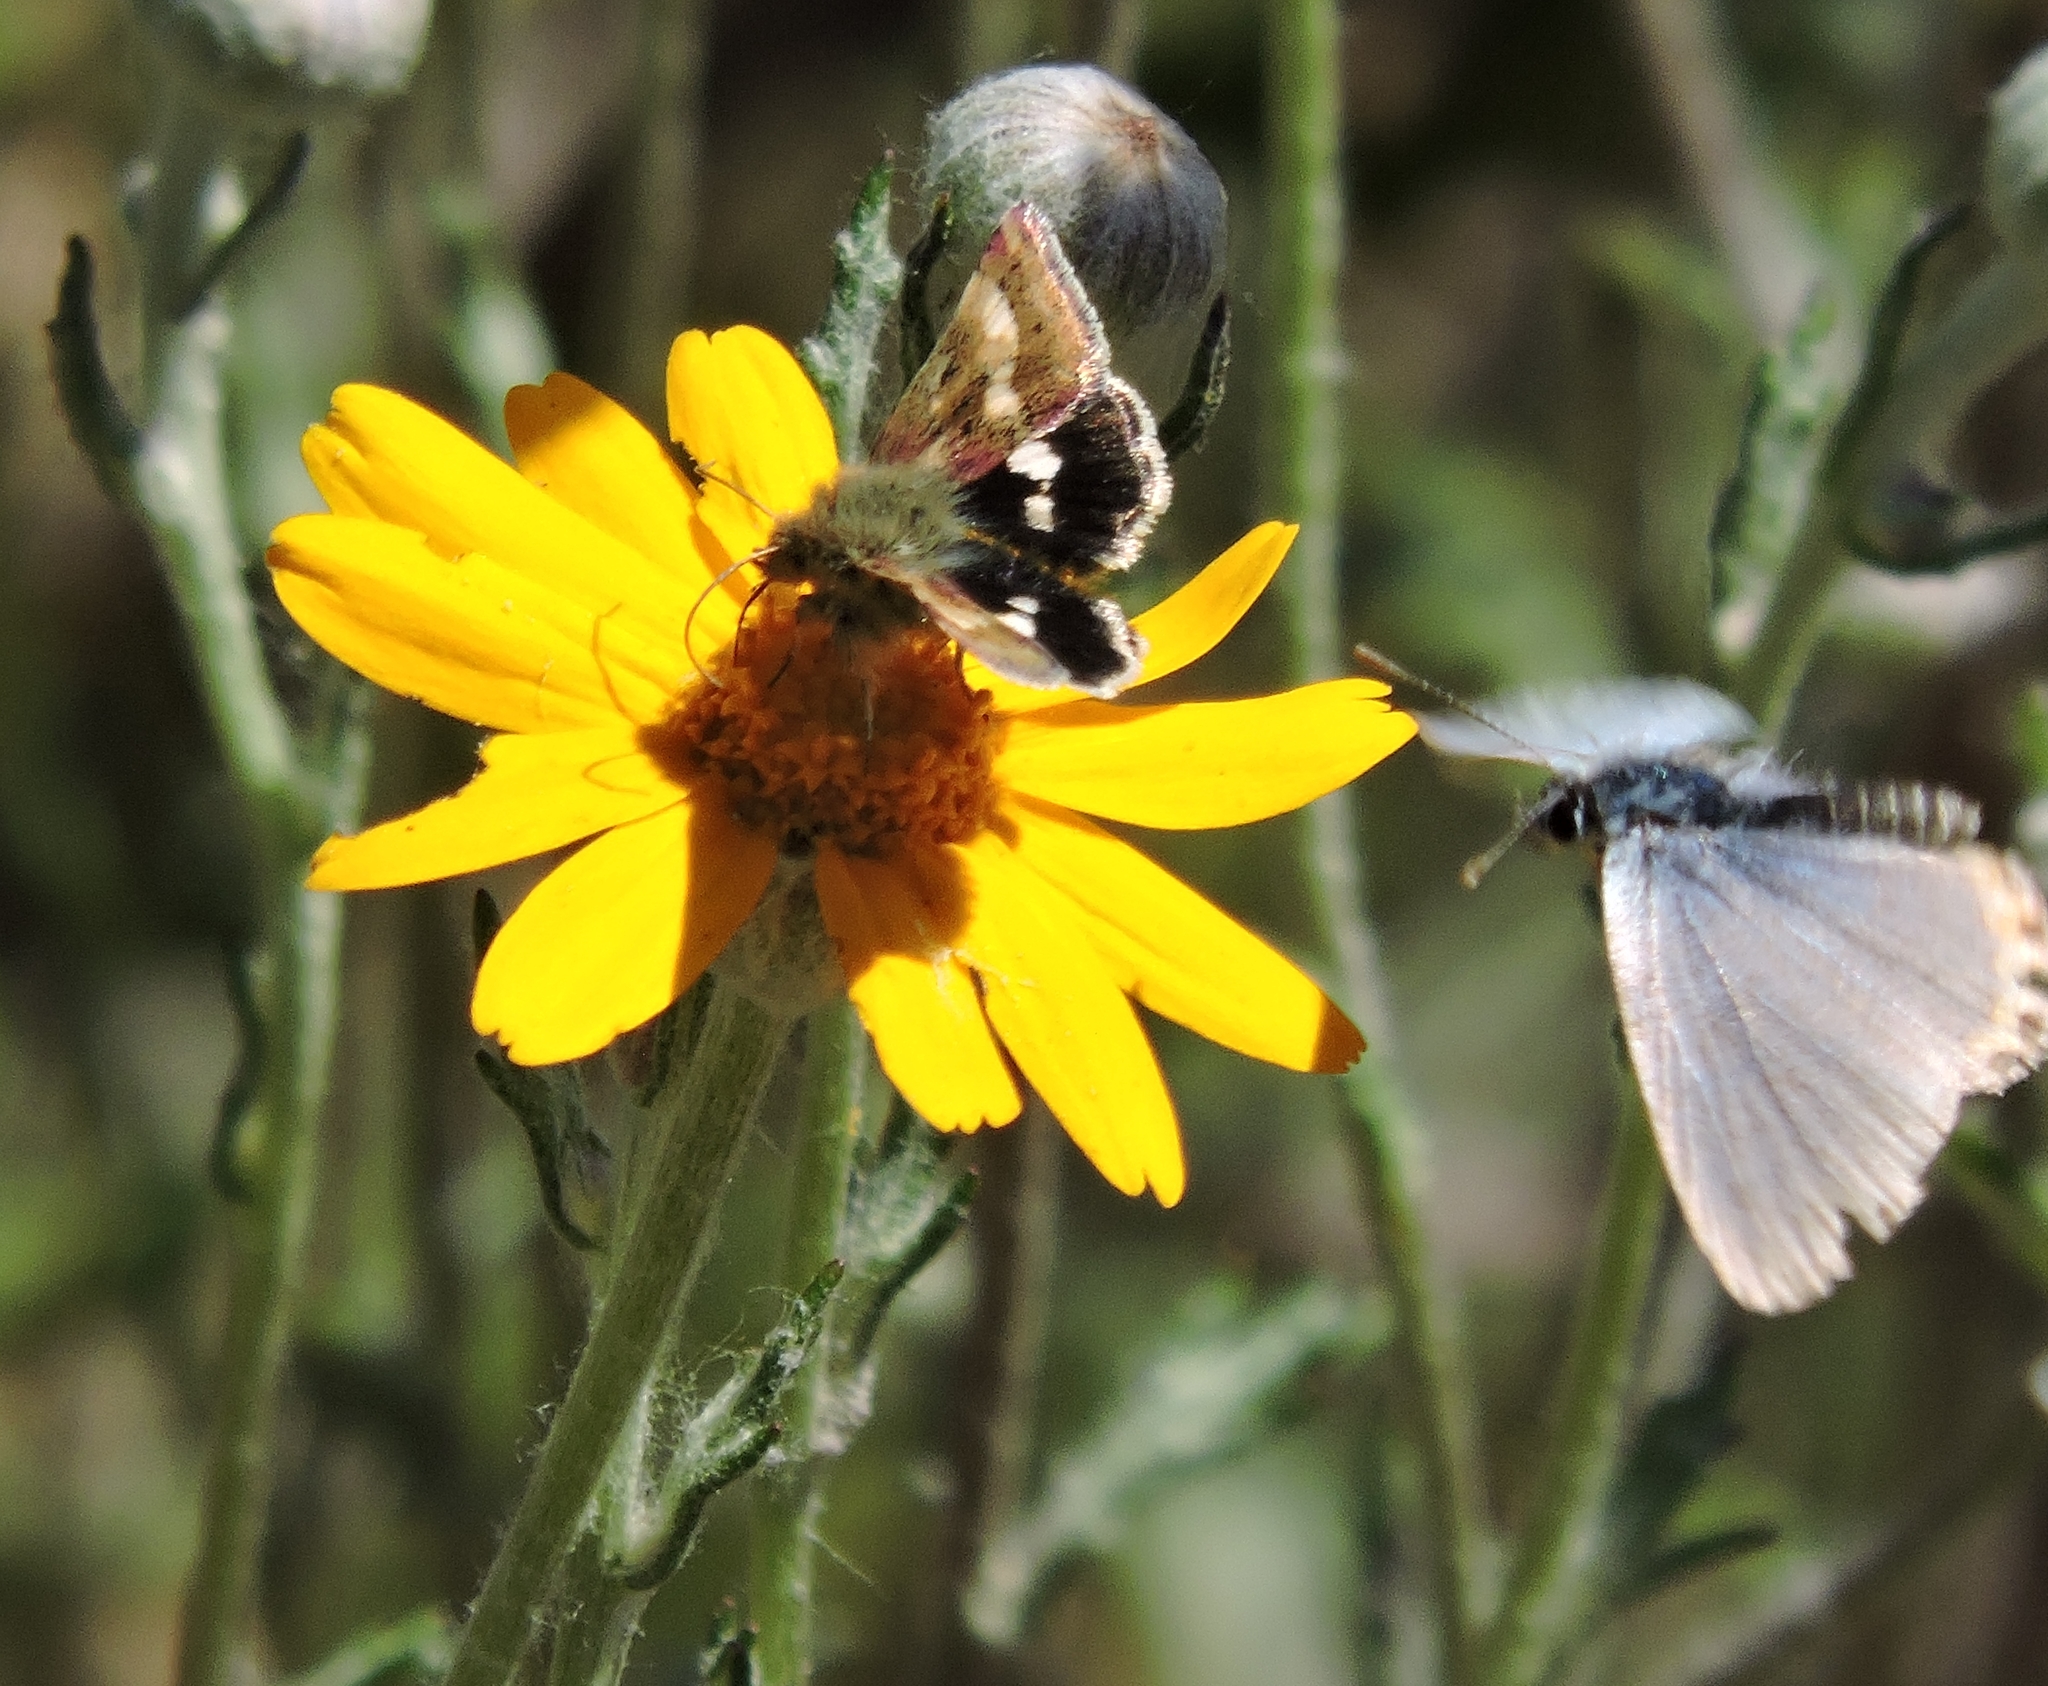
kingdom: Animalia
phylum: Arthropoda
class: Insecta
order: Lepidoptera
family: Noctuidae
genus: Heliothodes
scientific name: Heliothodes diminutiva
